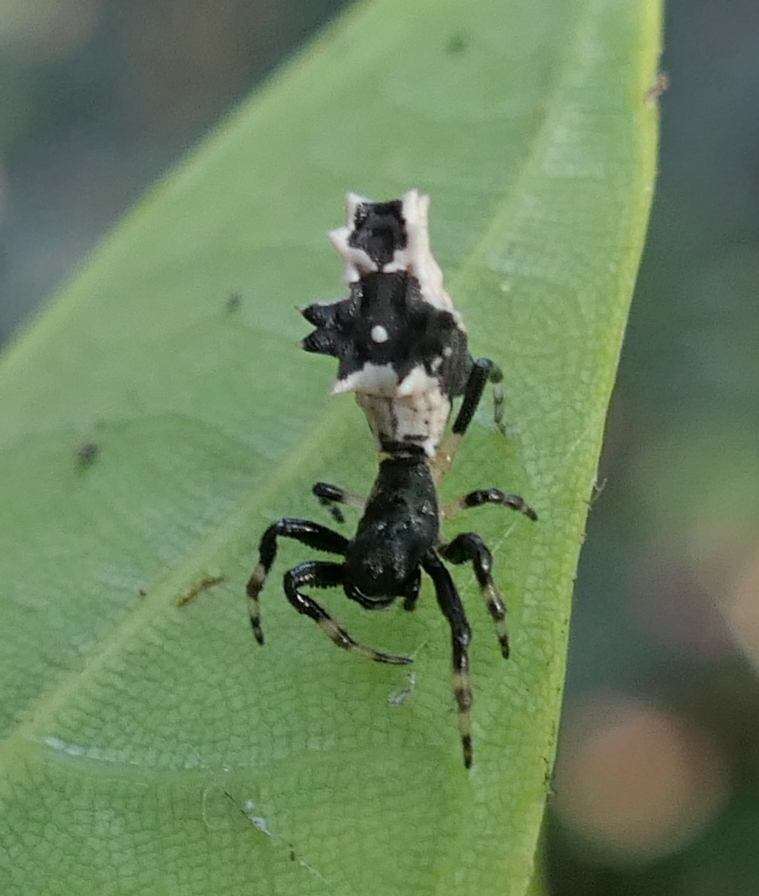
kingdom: Animalia
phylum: Arthropoda
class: Arachnida
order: Araneae
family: Araneidae
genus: Micrathena
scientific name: Micrathena horrida
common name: Orb weavers
